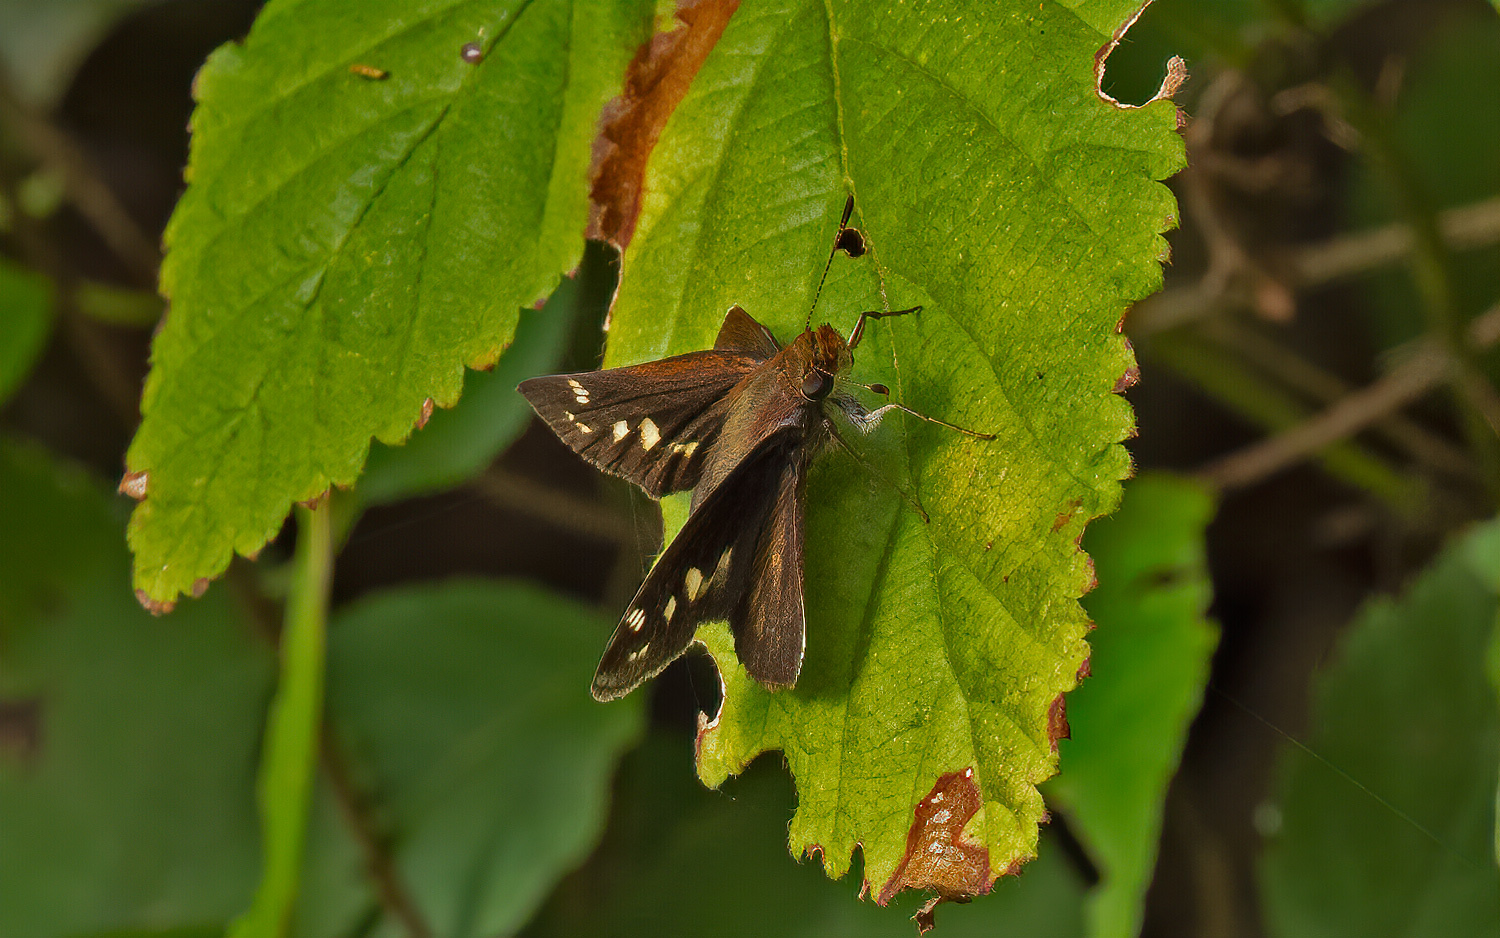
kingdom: Animalia
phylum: Arthropoda
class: Insecta
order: Lepidoptera
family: Hesperiidae
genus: Lon
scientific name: Lon zabulon
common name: Zabulon skipper
